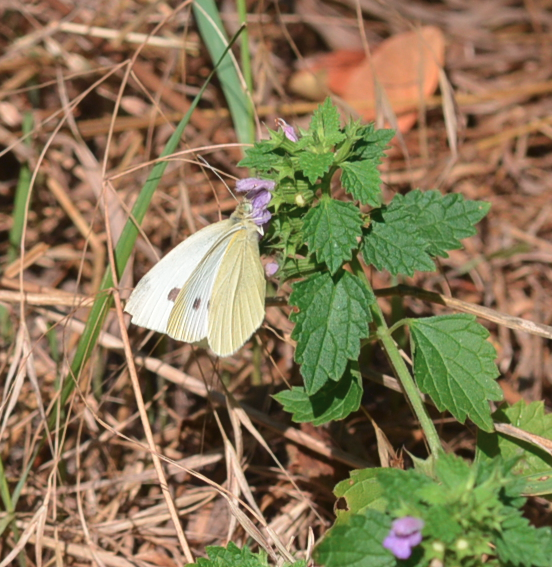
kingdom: Animalia
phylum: Arthropoda
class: Insecta
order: Lepidoptera
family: Pieridae
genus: Pieris
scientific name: Pieris rapae
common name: Small white
